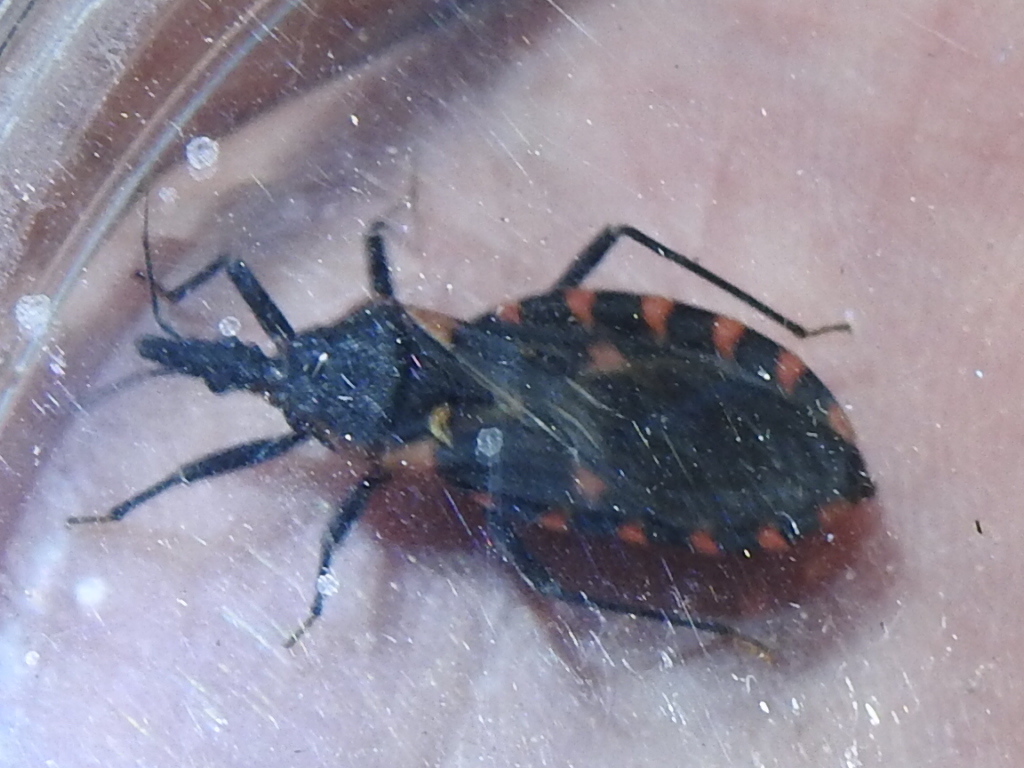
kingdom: Animalia
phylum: Arthropoda
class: Insecta
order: Hemiptera
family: Reduviidae
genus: Triatoma
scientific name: Triatoma sanguisuga
